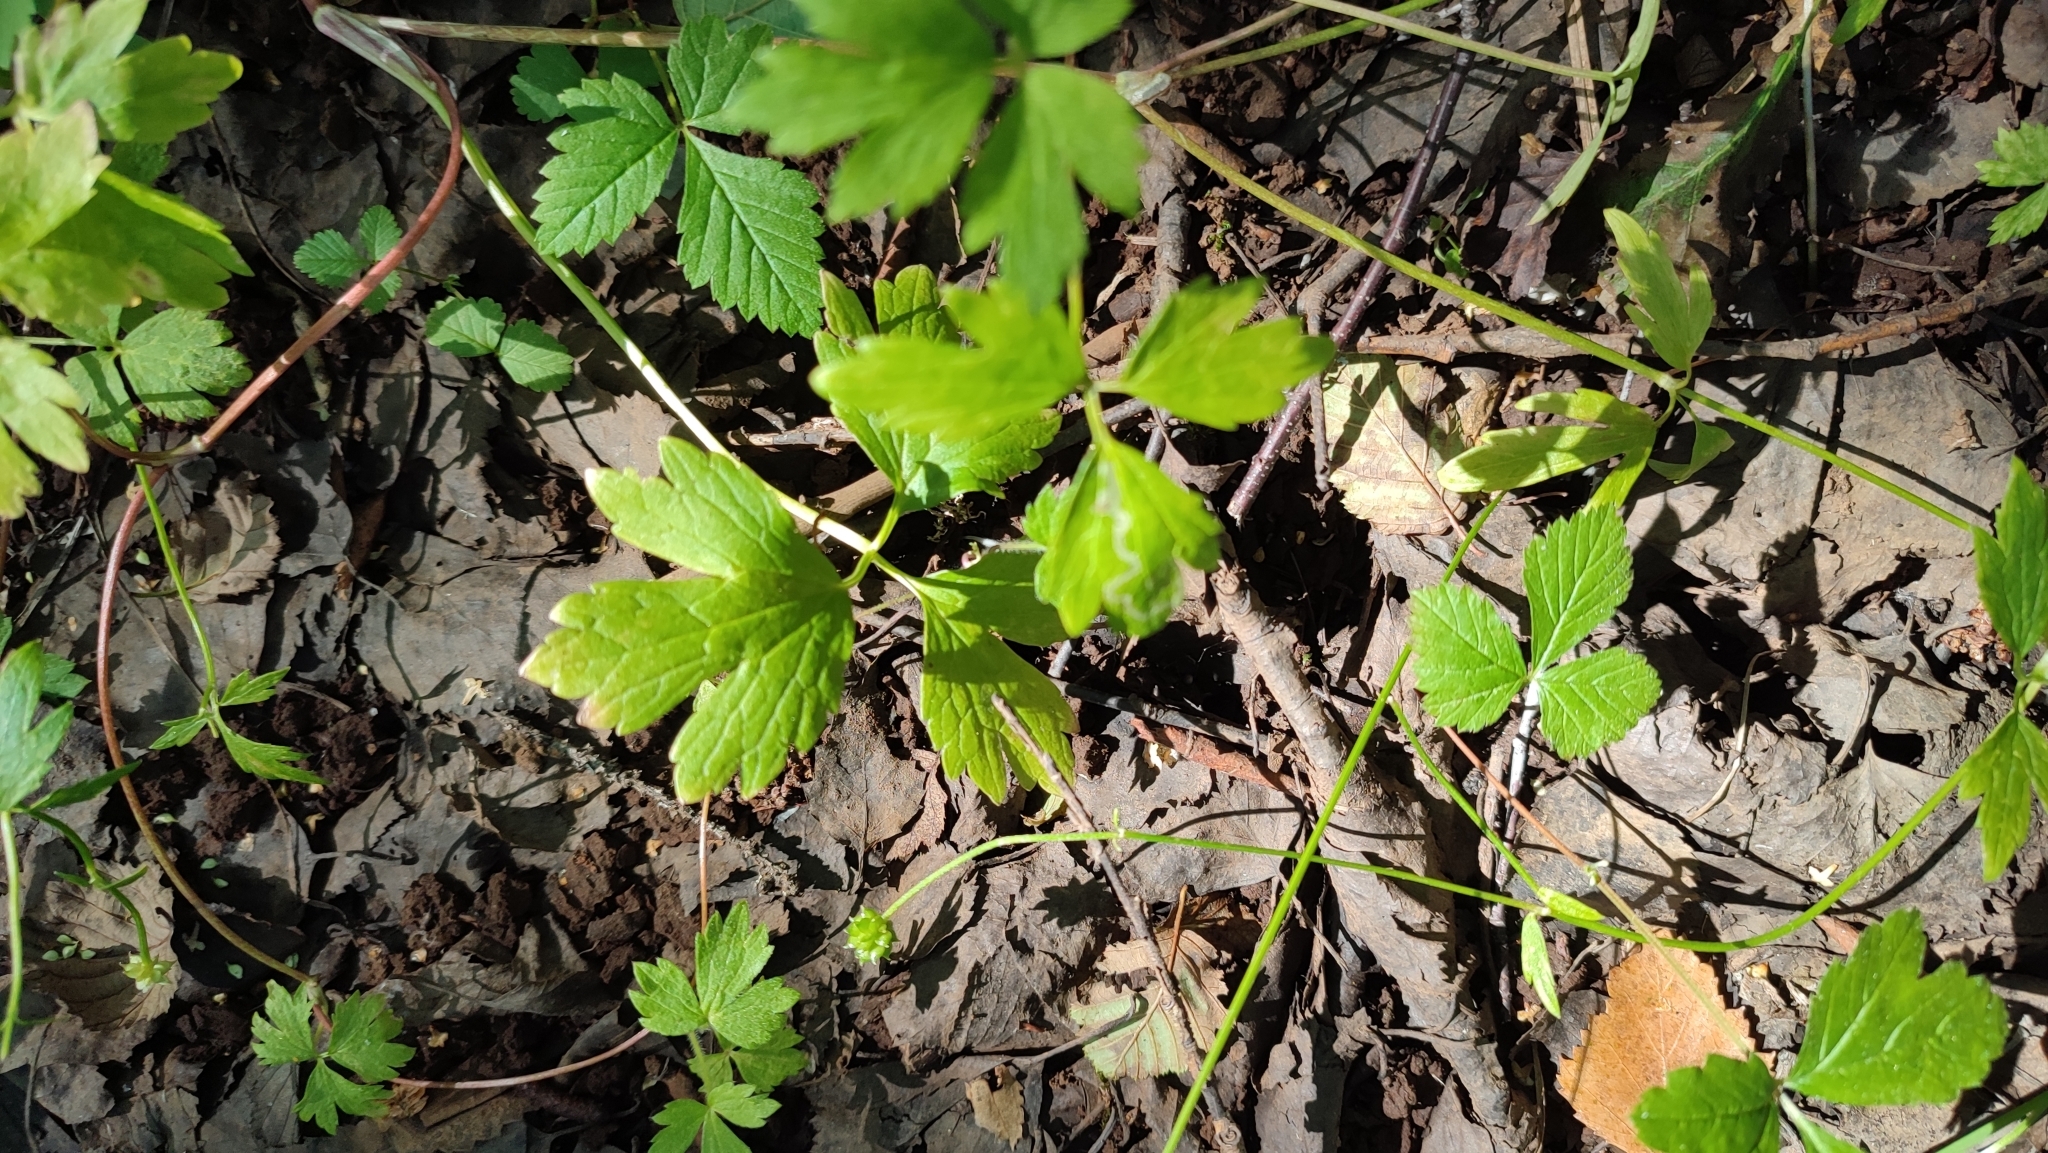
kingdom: Plantae
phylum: Tracheophyta
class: Magnoliopsida
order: Ranunculales
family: Ranunculaceae
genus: Ranunculus
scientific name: Ranunculus repens
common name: Creeping buttercup
